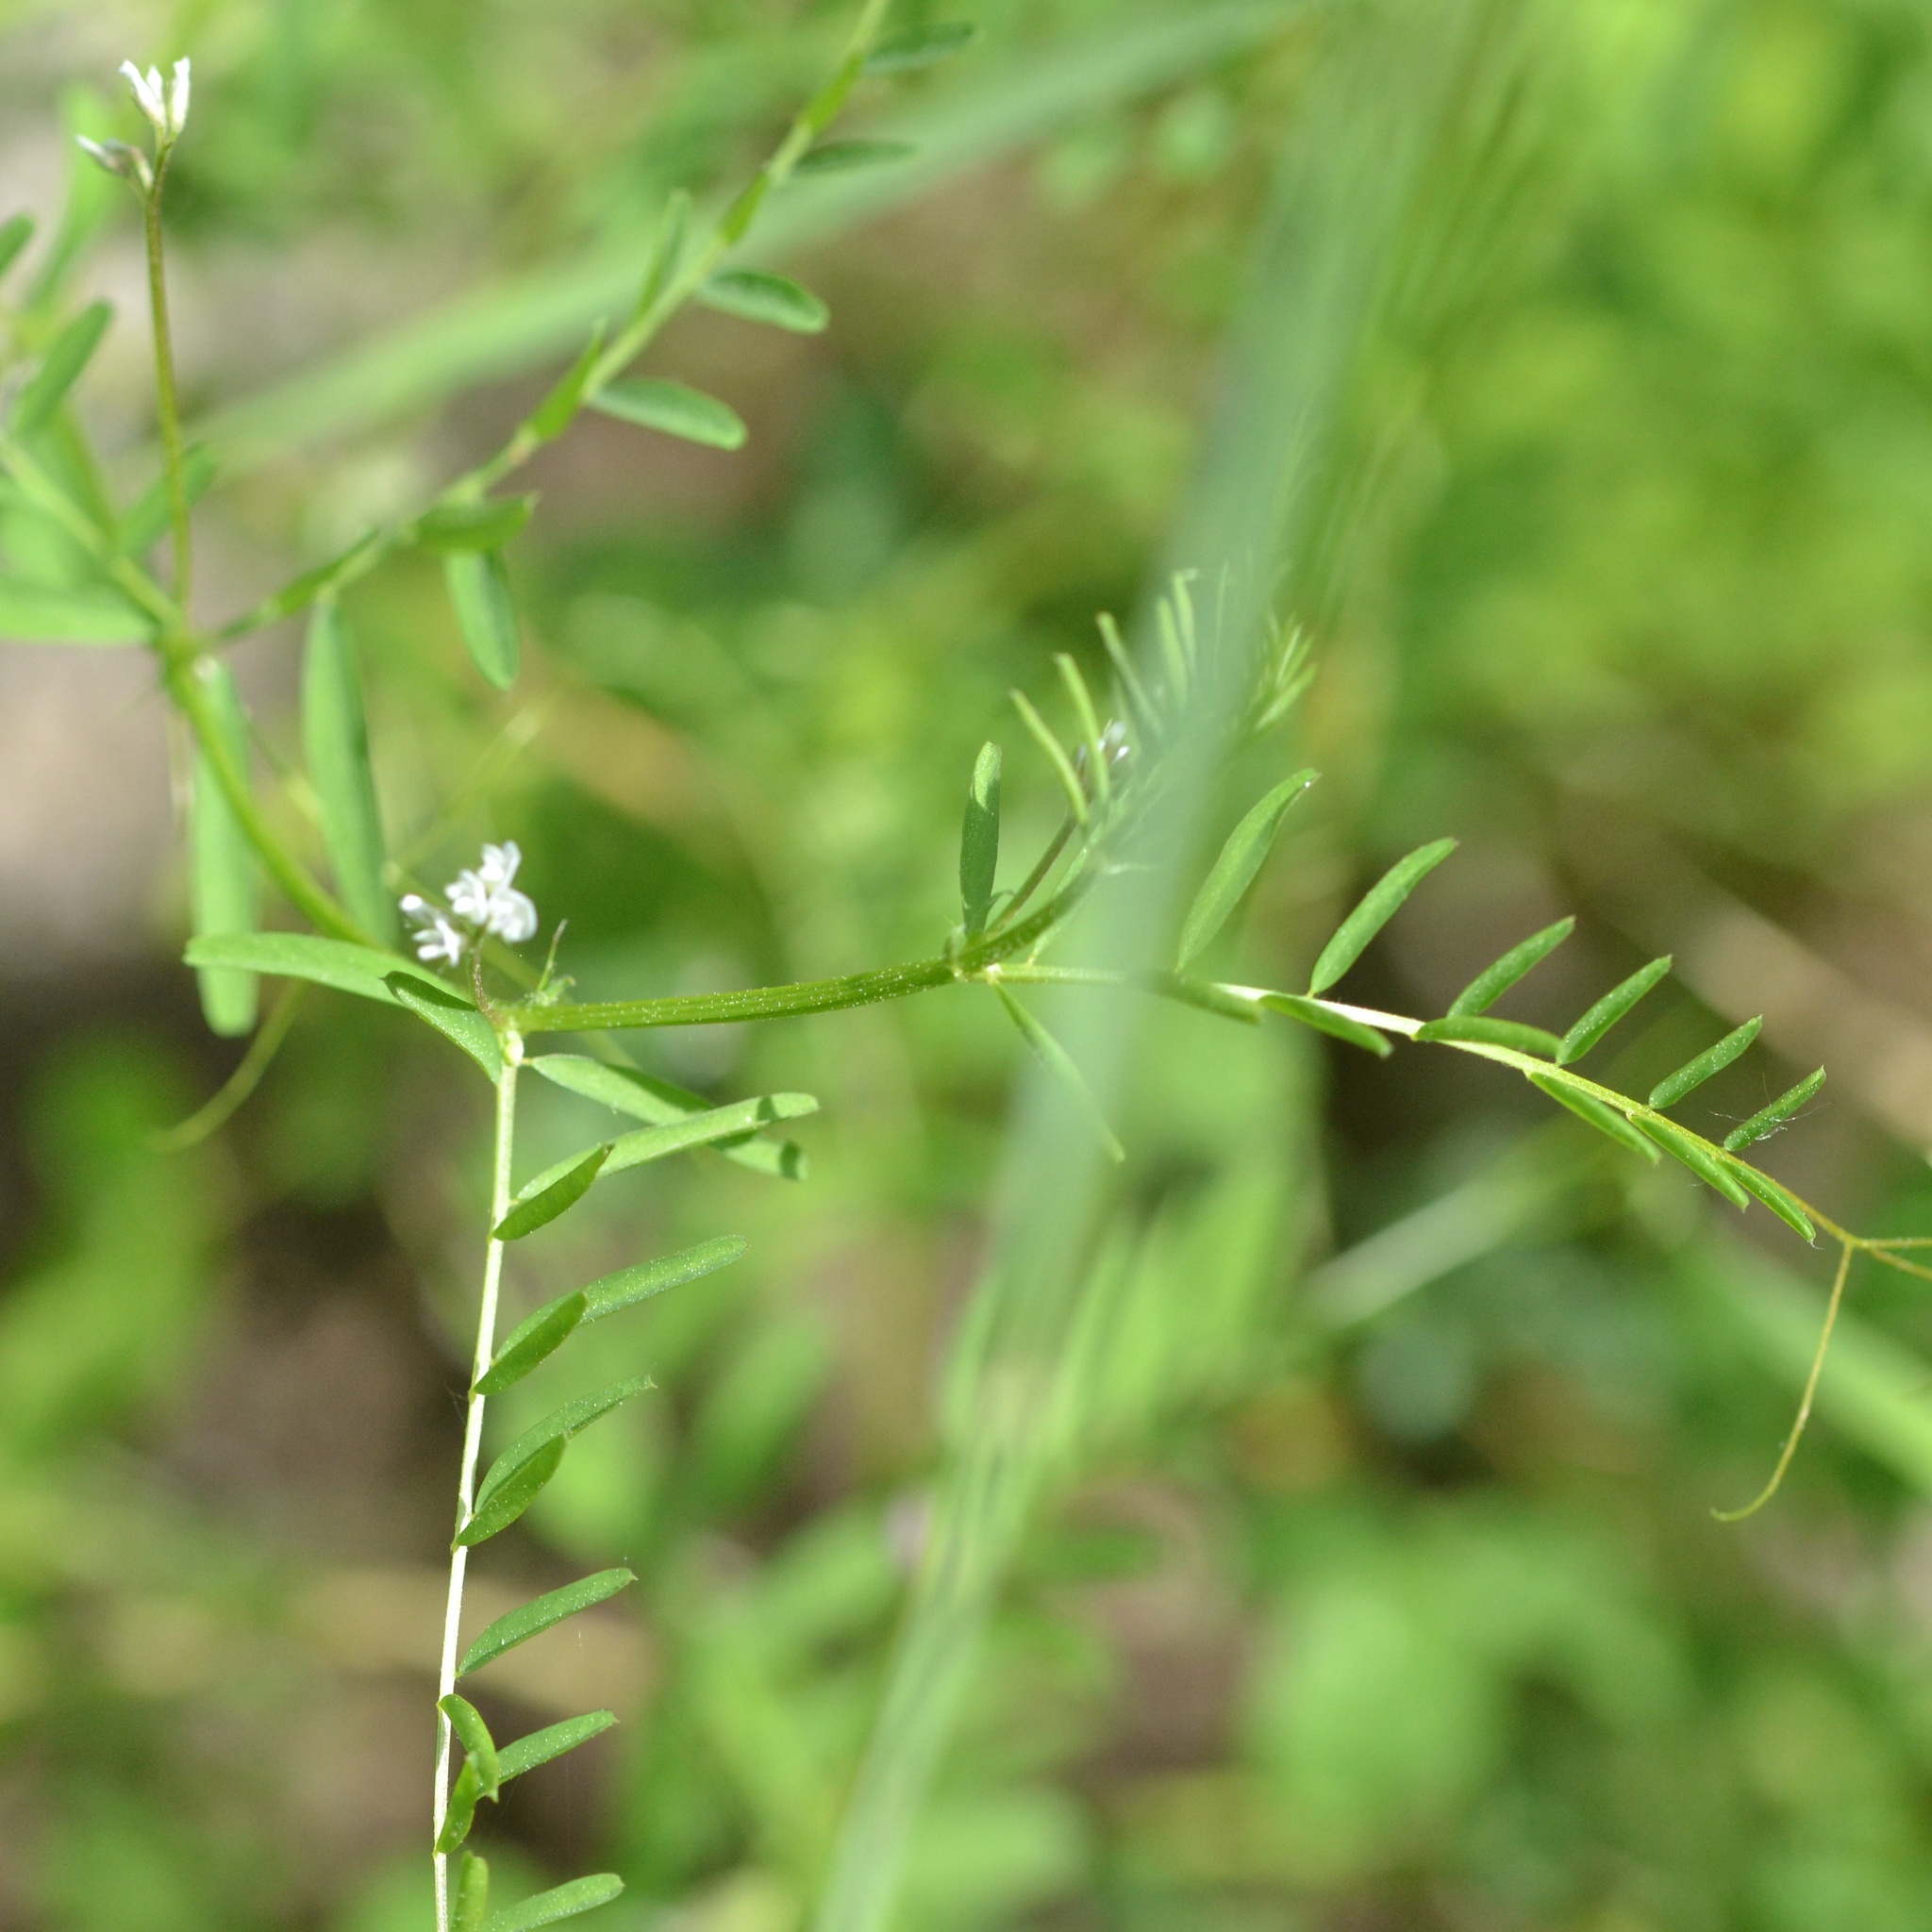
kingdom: Plantae
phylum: Tracheophyta
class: Magnoliopsida
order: Fabales
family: Fabaceae
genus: Vicia
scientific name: Vicia hirsuta
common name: Tiny vetch
